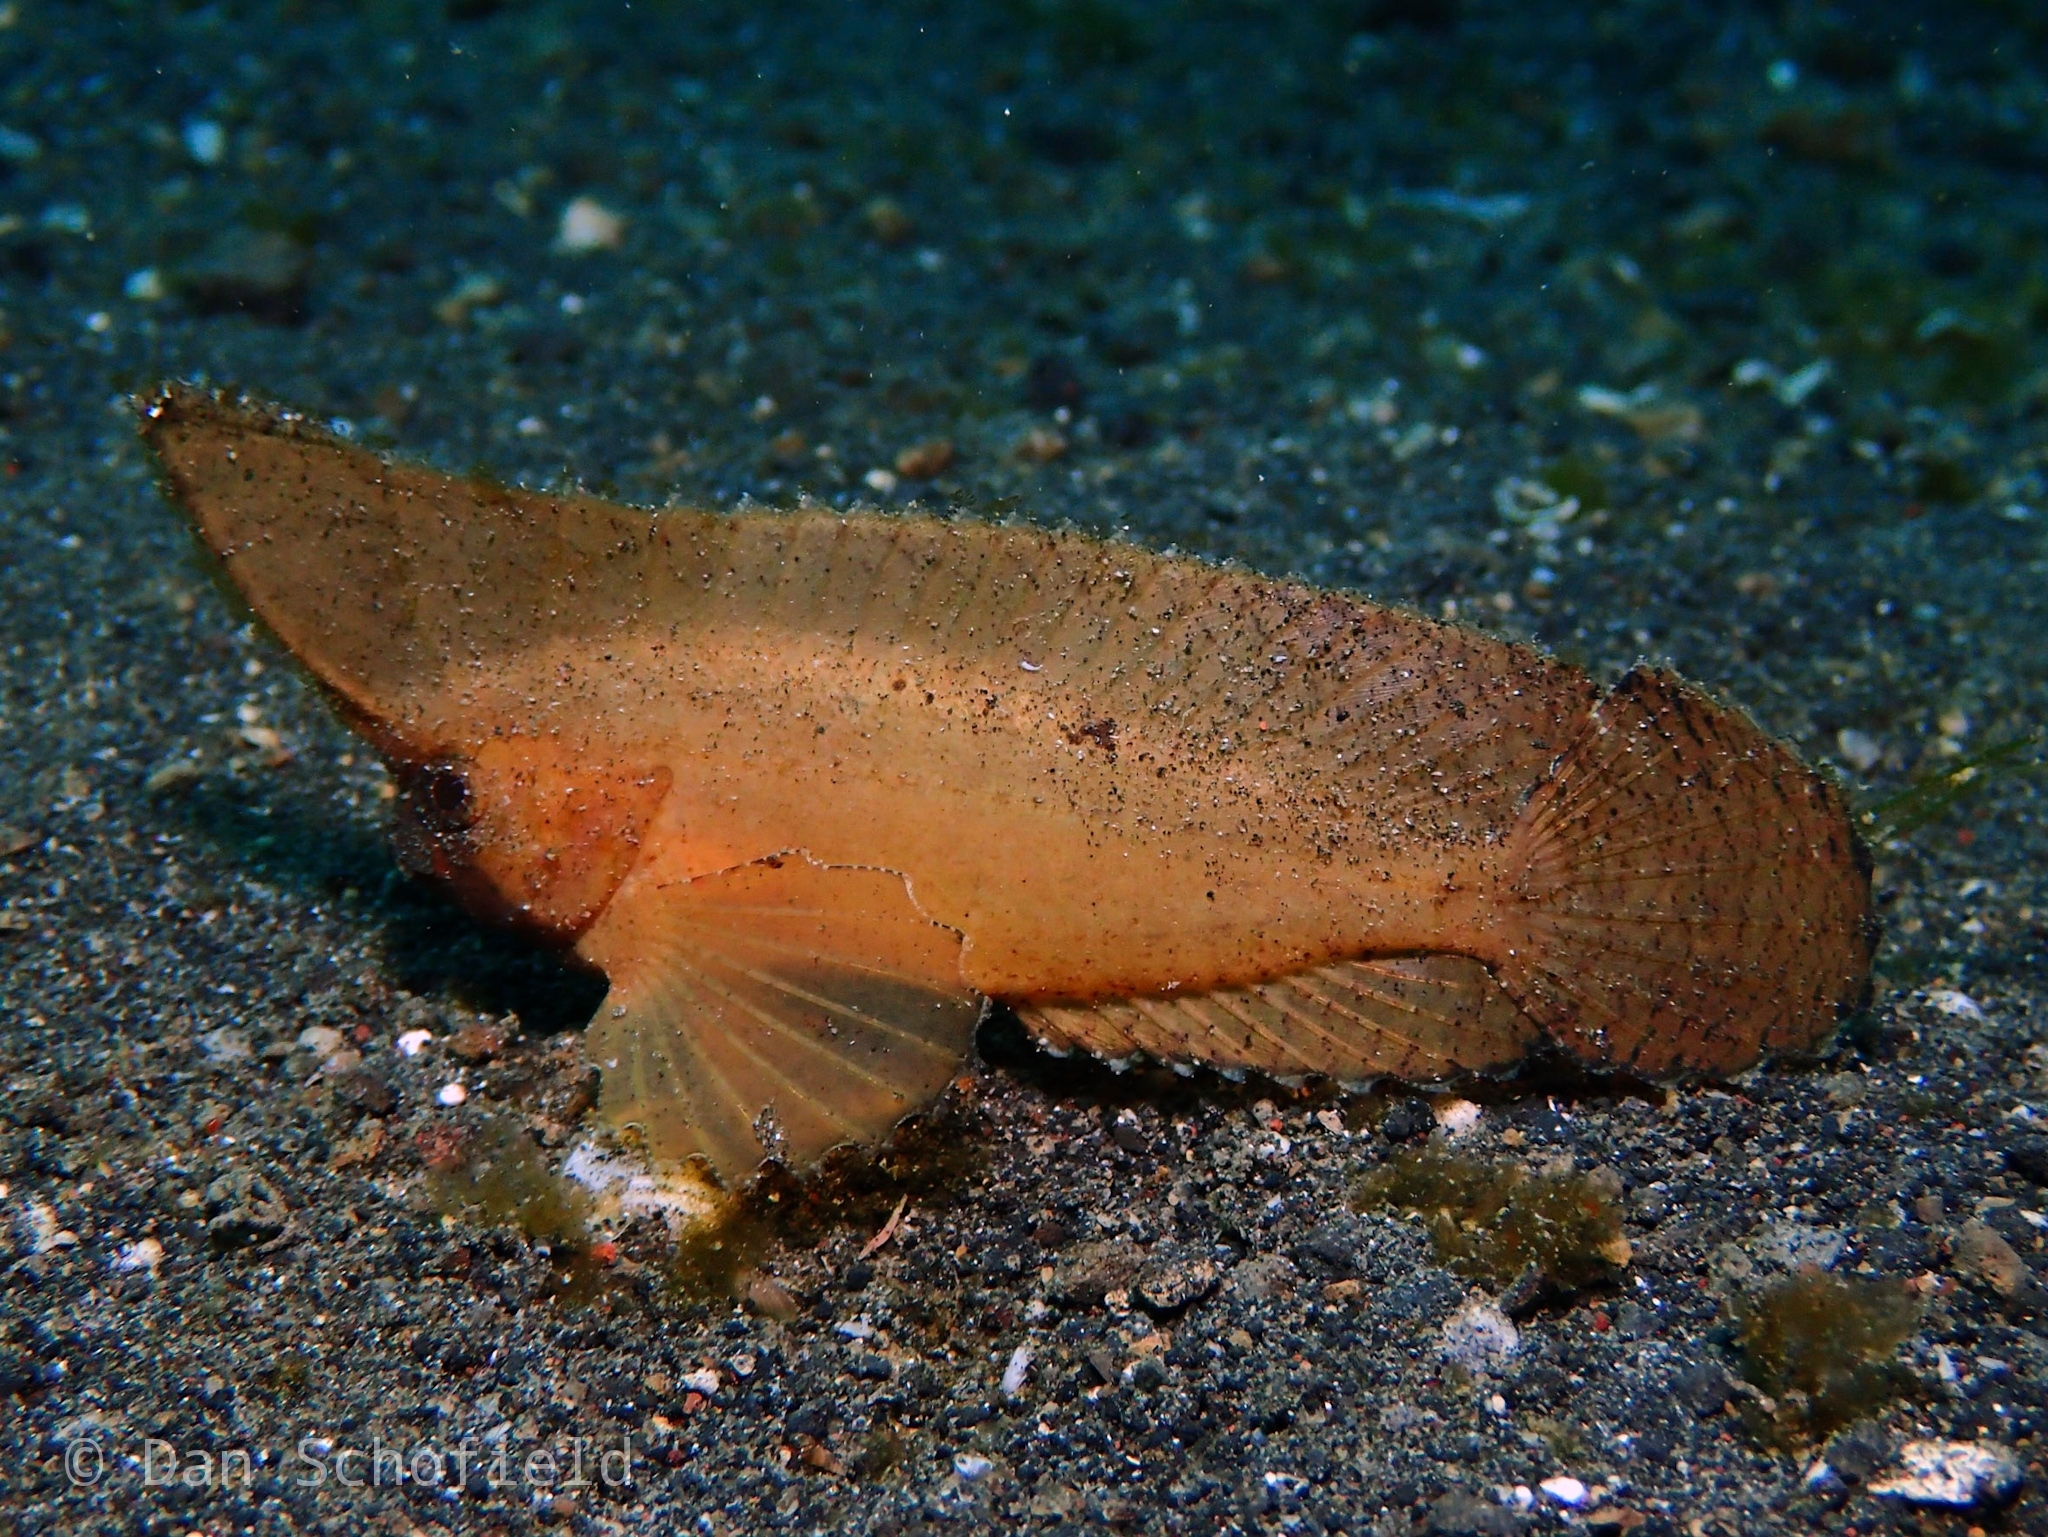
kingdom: Animalia
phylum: Chordata
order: Scorpaeniformes
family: Tetrarogidae
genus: Ablabys
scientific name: Ablabys taenianotus
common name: Cockatoo waspfish
